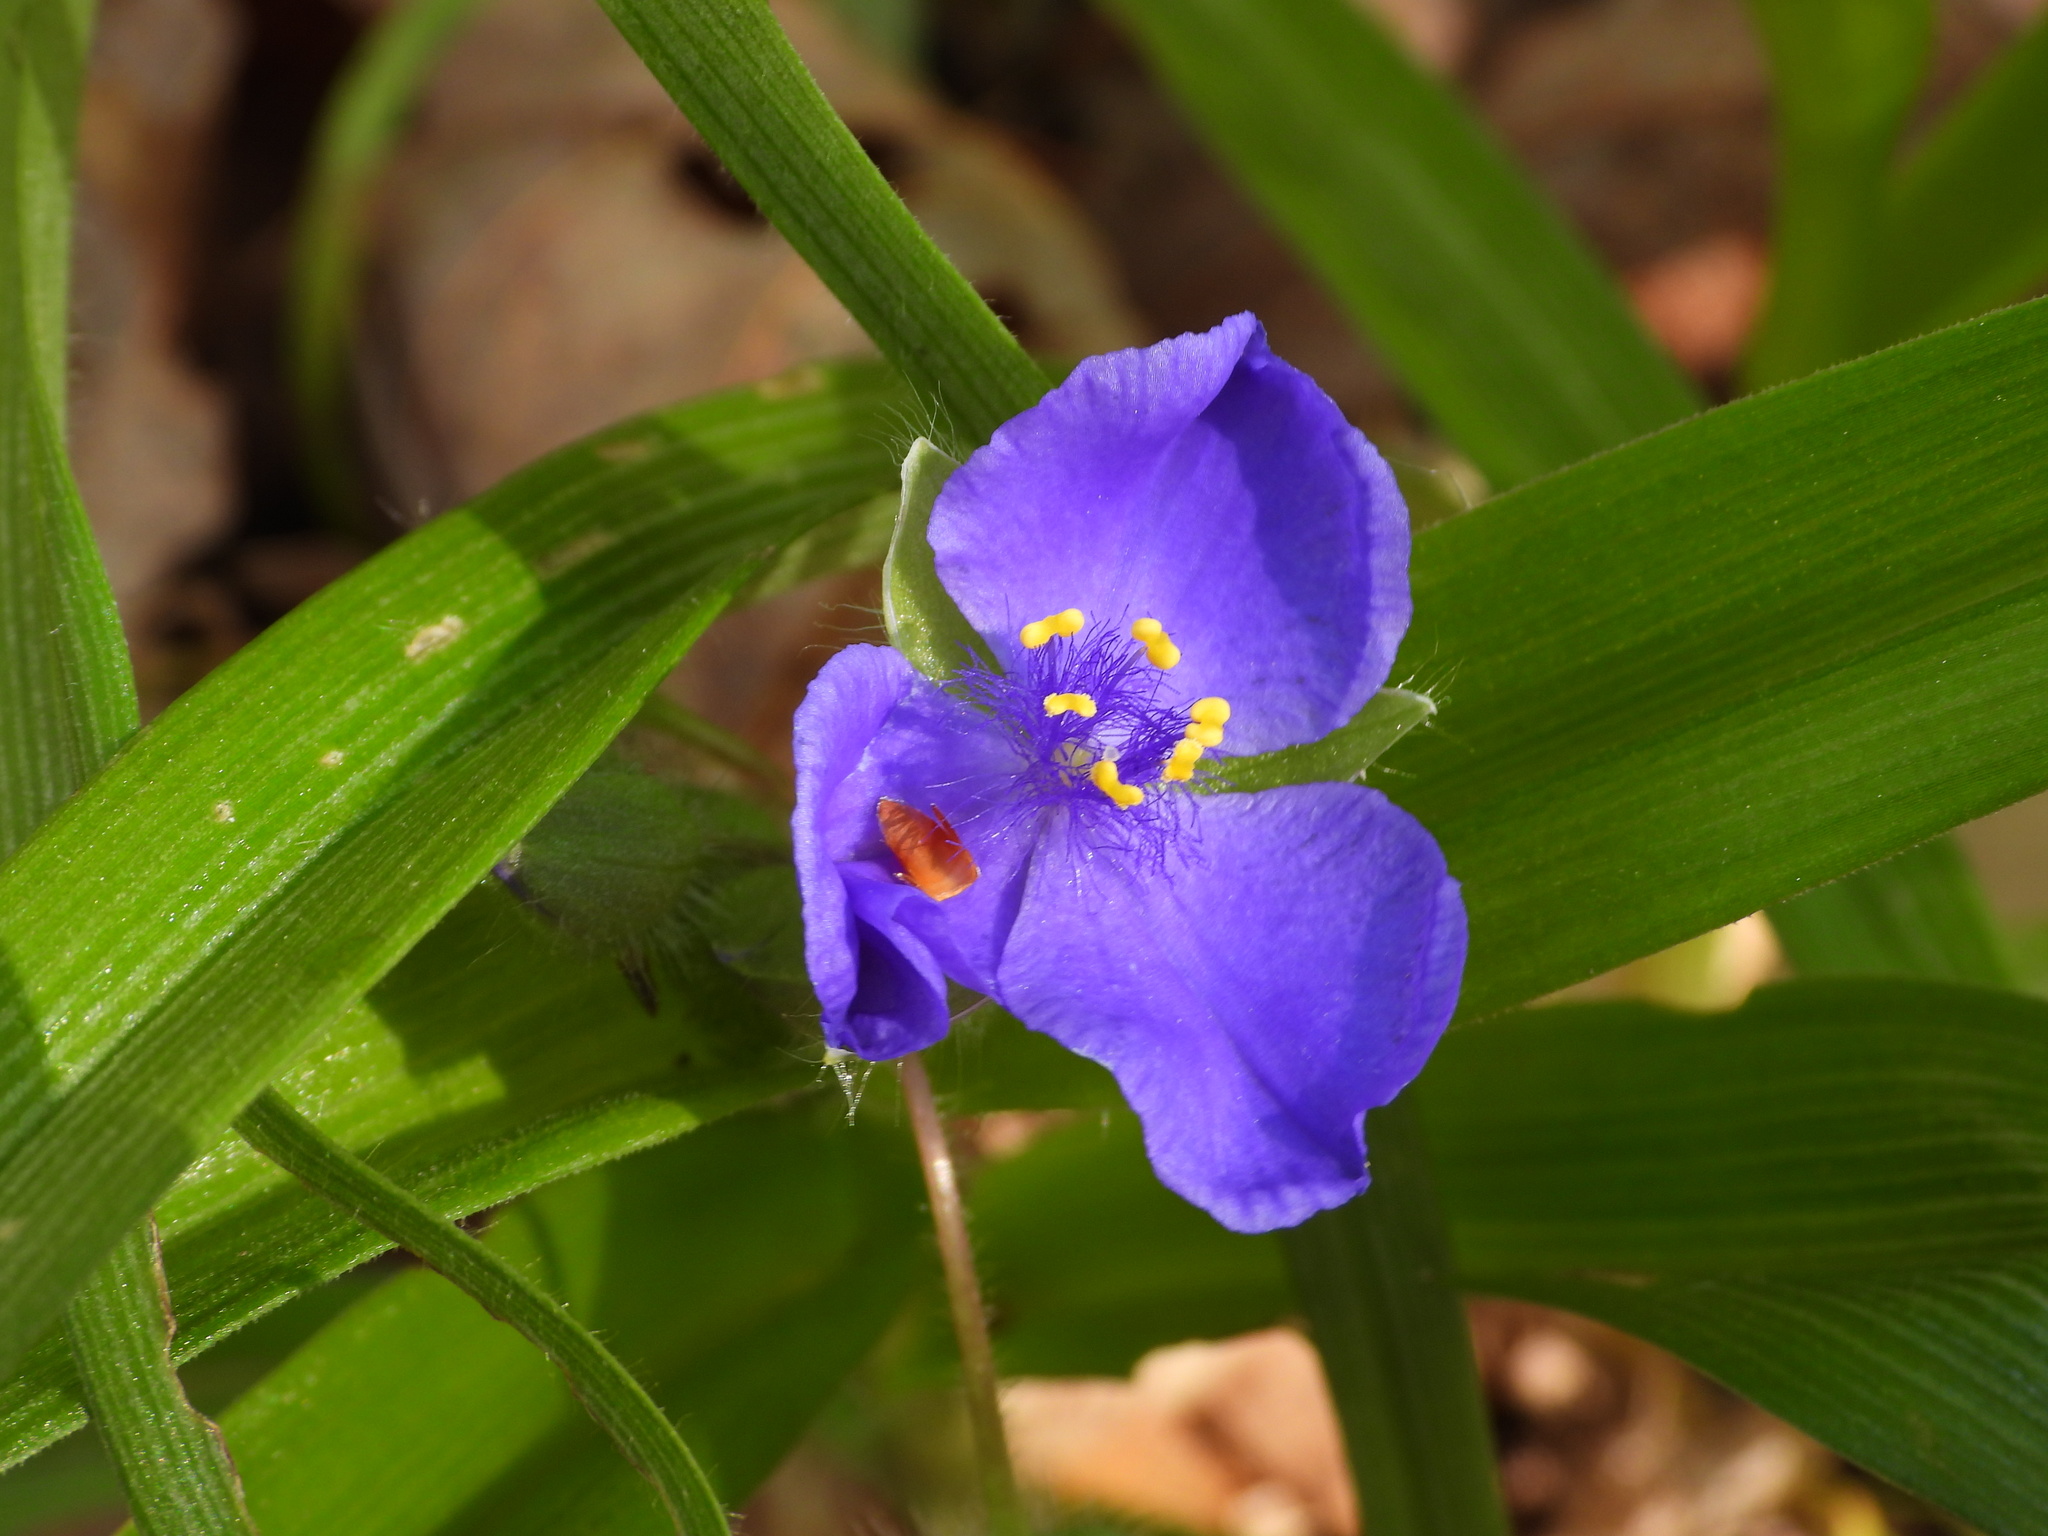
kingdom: Plantae
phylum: Tracheophyta
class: Liliopsida
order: Commelinales
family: Commelinaceae
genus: Tradescantia
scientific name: Tradescantia virginiana
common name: Spiderwort
